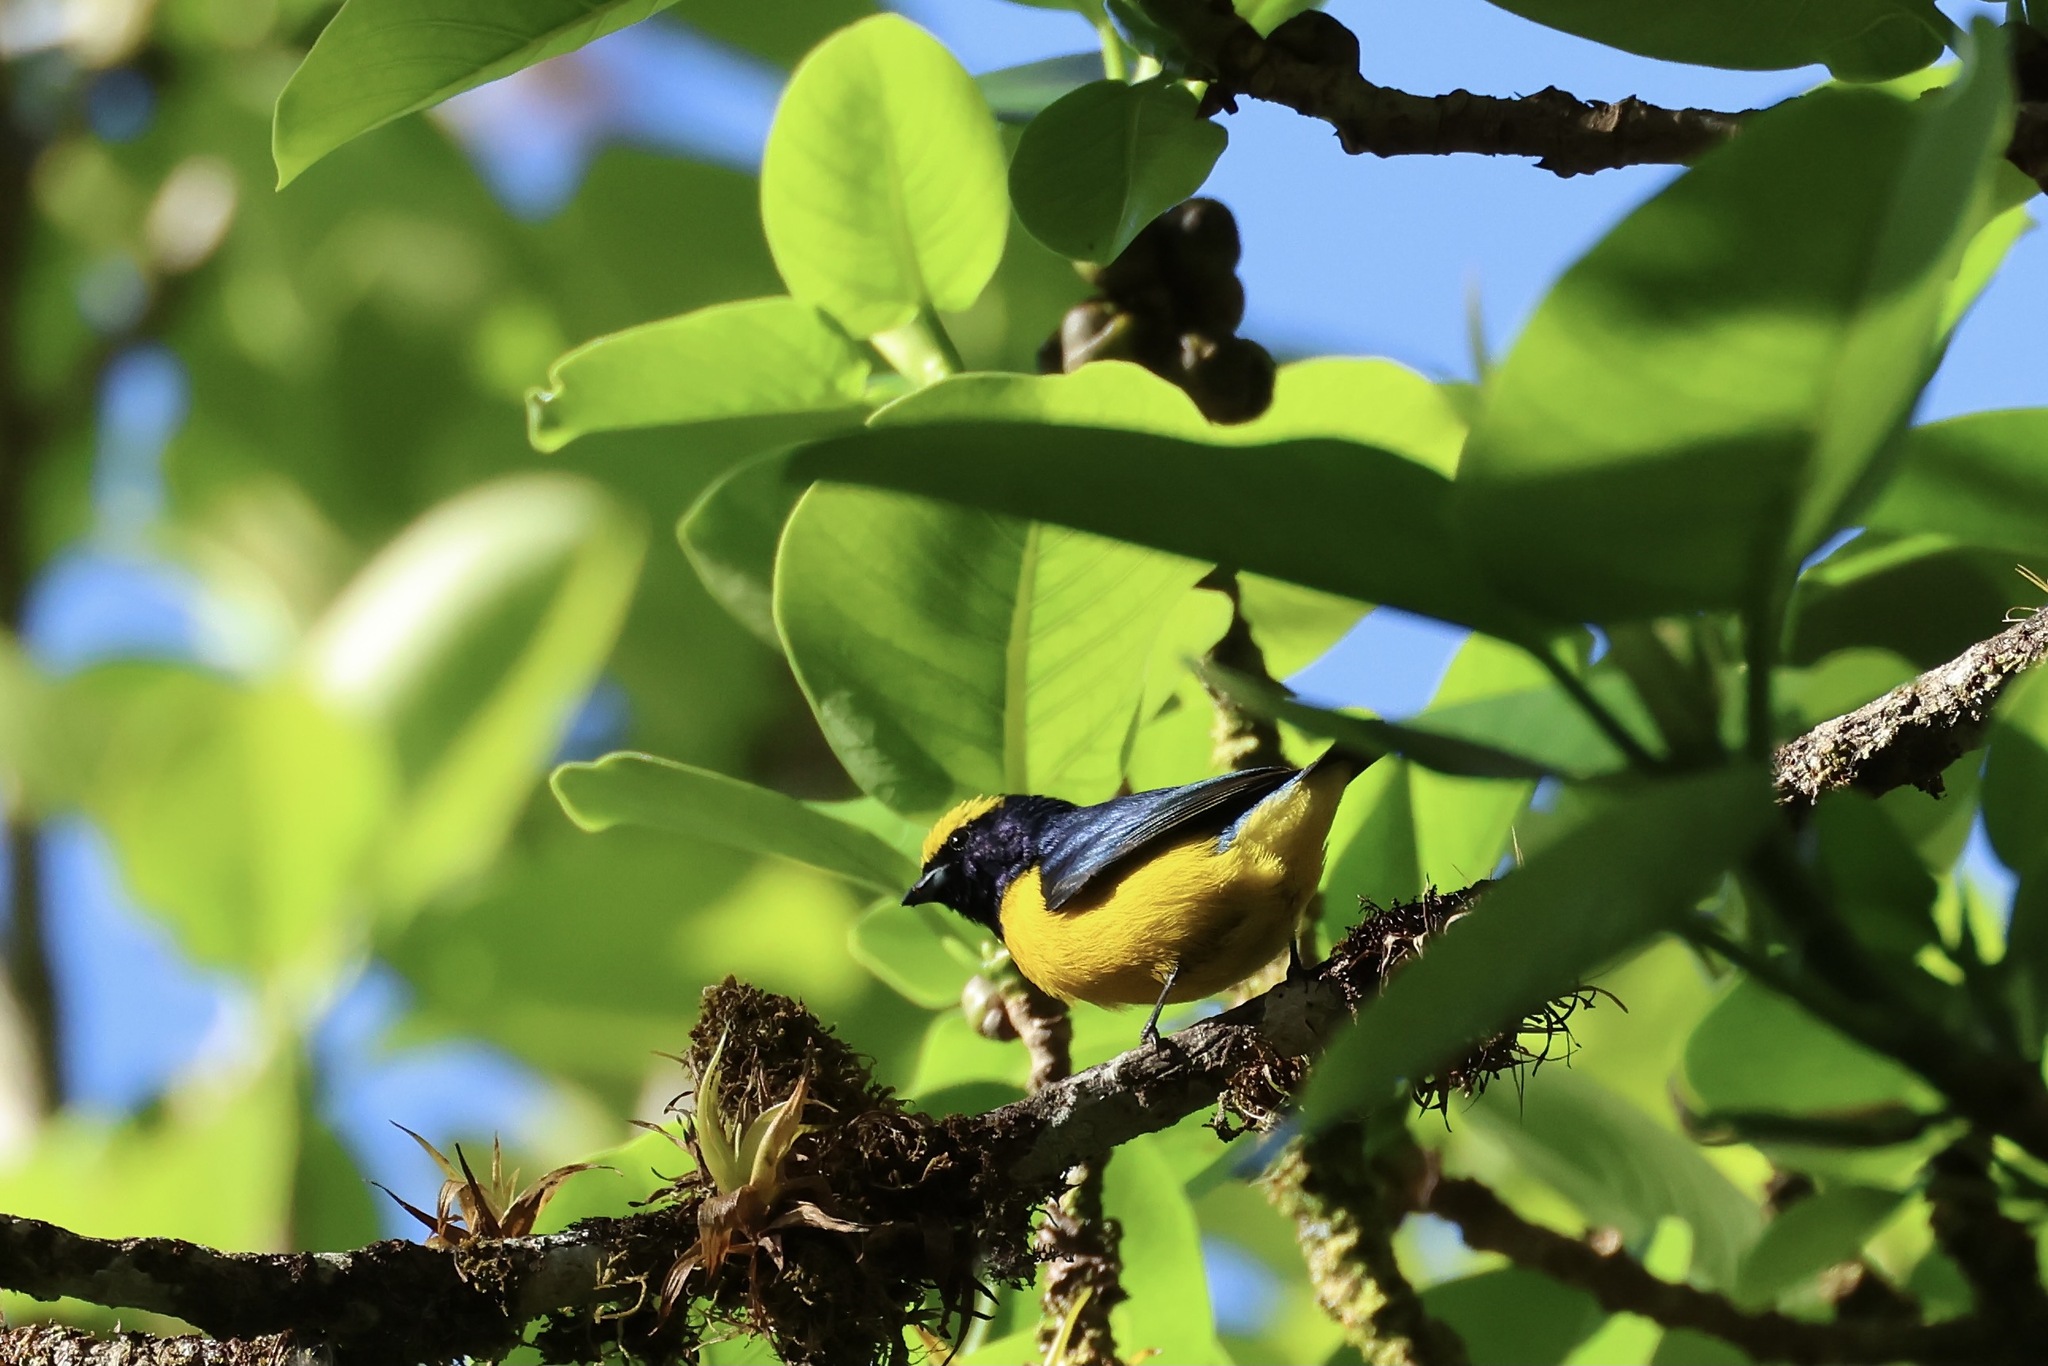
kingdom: Animalia
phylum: Chordata
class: Aves
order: Passeriformes
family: Fringillidae
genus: Euphonia
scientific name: Euphonia luteicapilla
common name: Yellow-crowned euphonia
